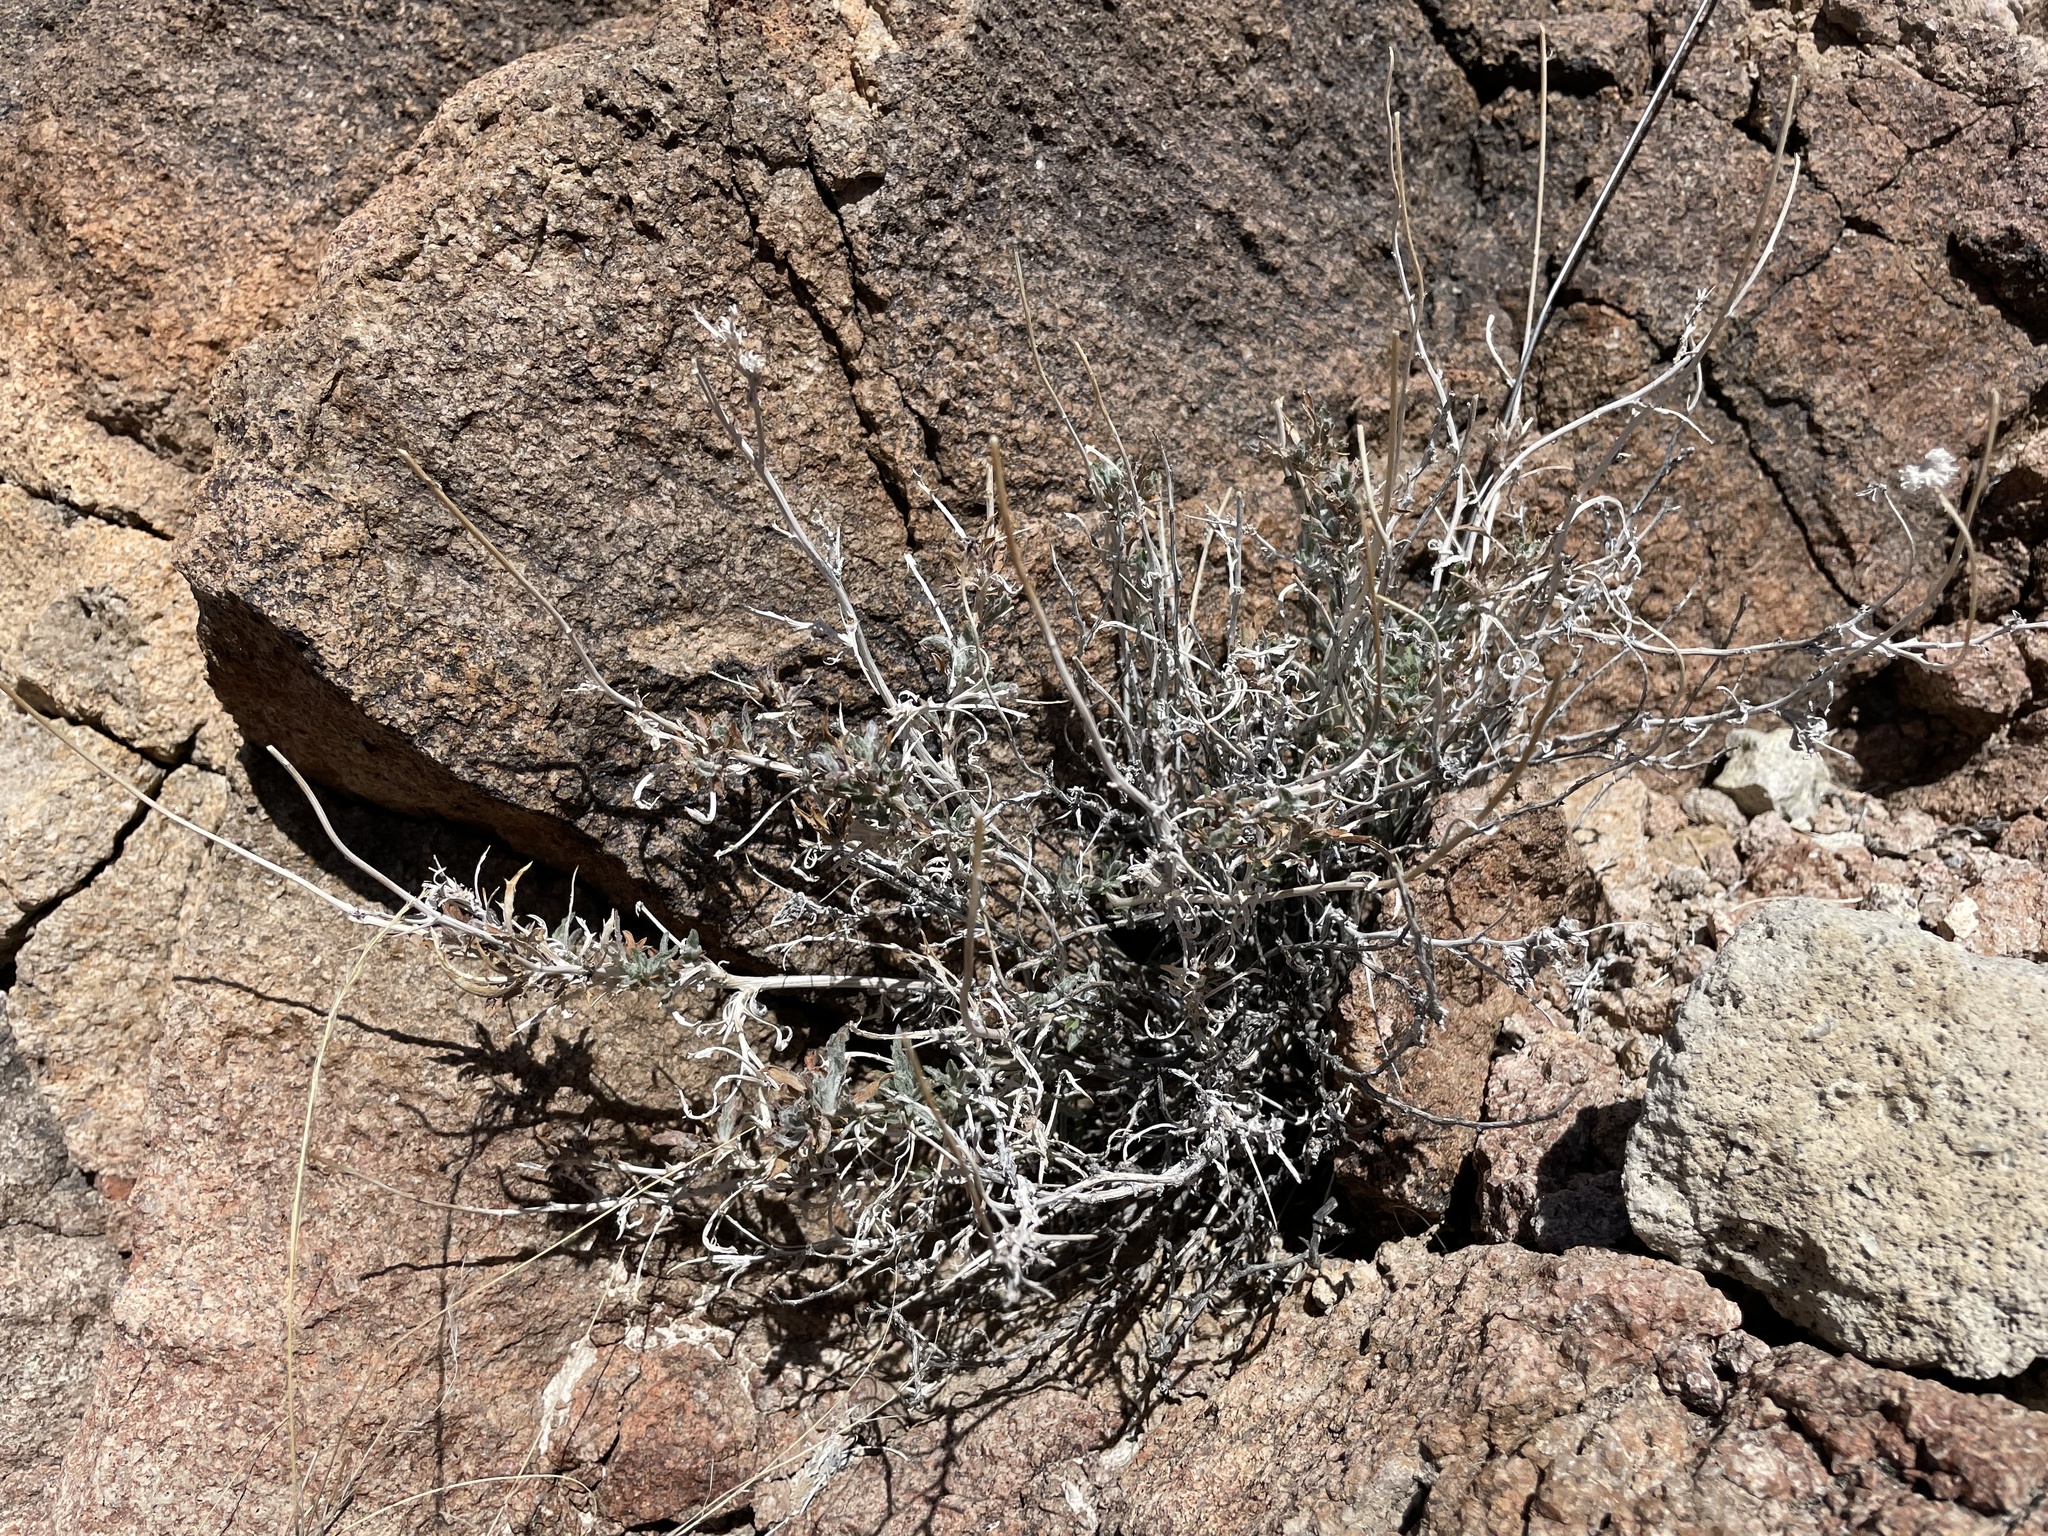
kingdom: Plantae
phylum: Tracheophyta
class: Magnoliopsida
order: Asterales
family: Asteraceae
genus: Xylorhiza
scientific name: Xylorhiza tortifolia
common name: Hurt-leaf woody-aster
